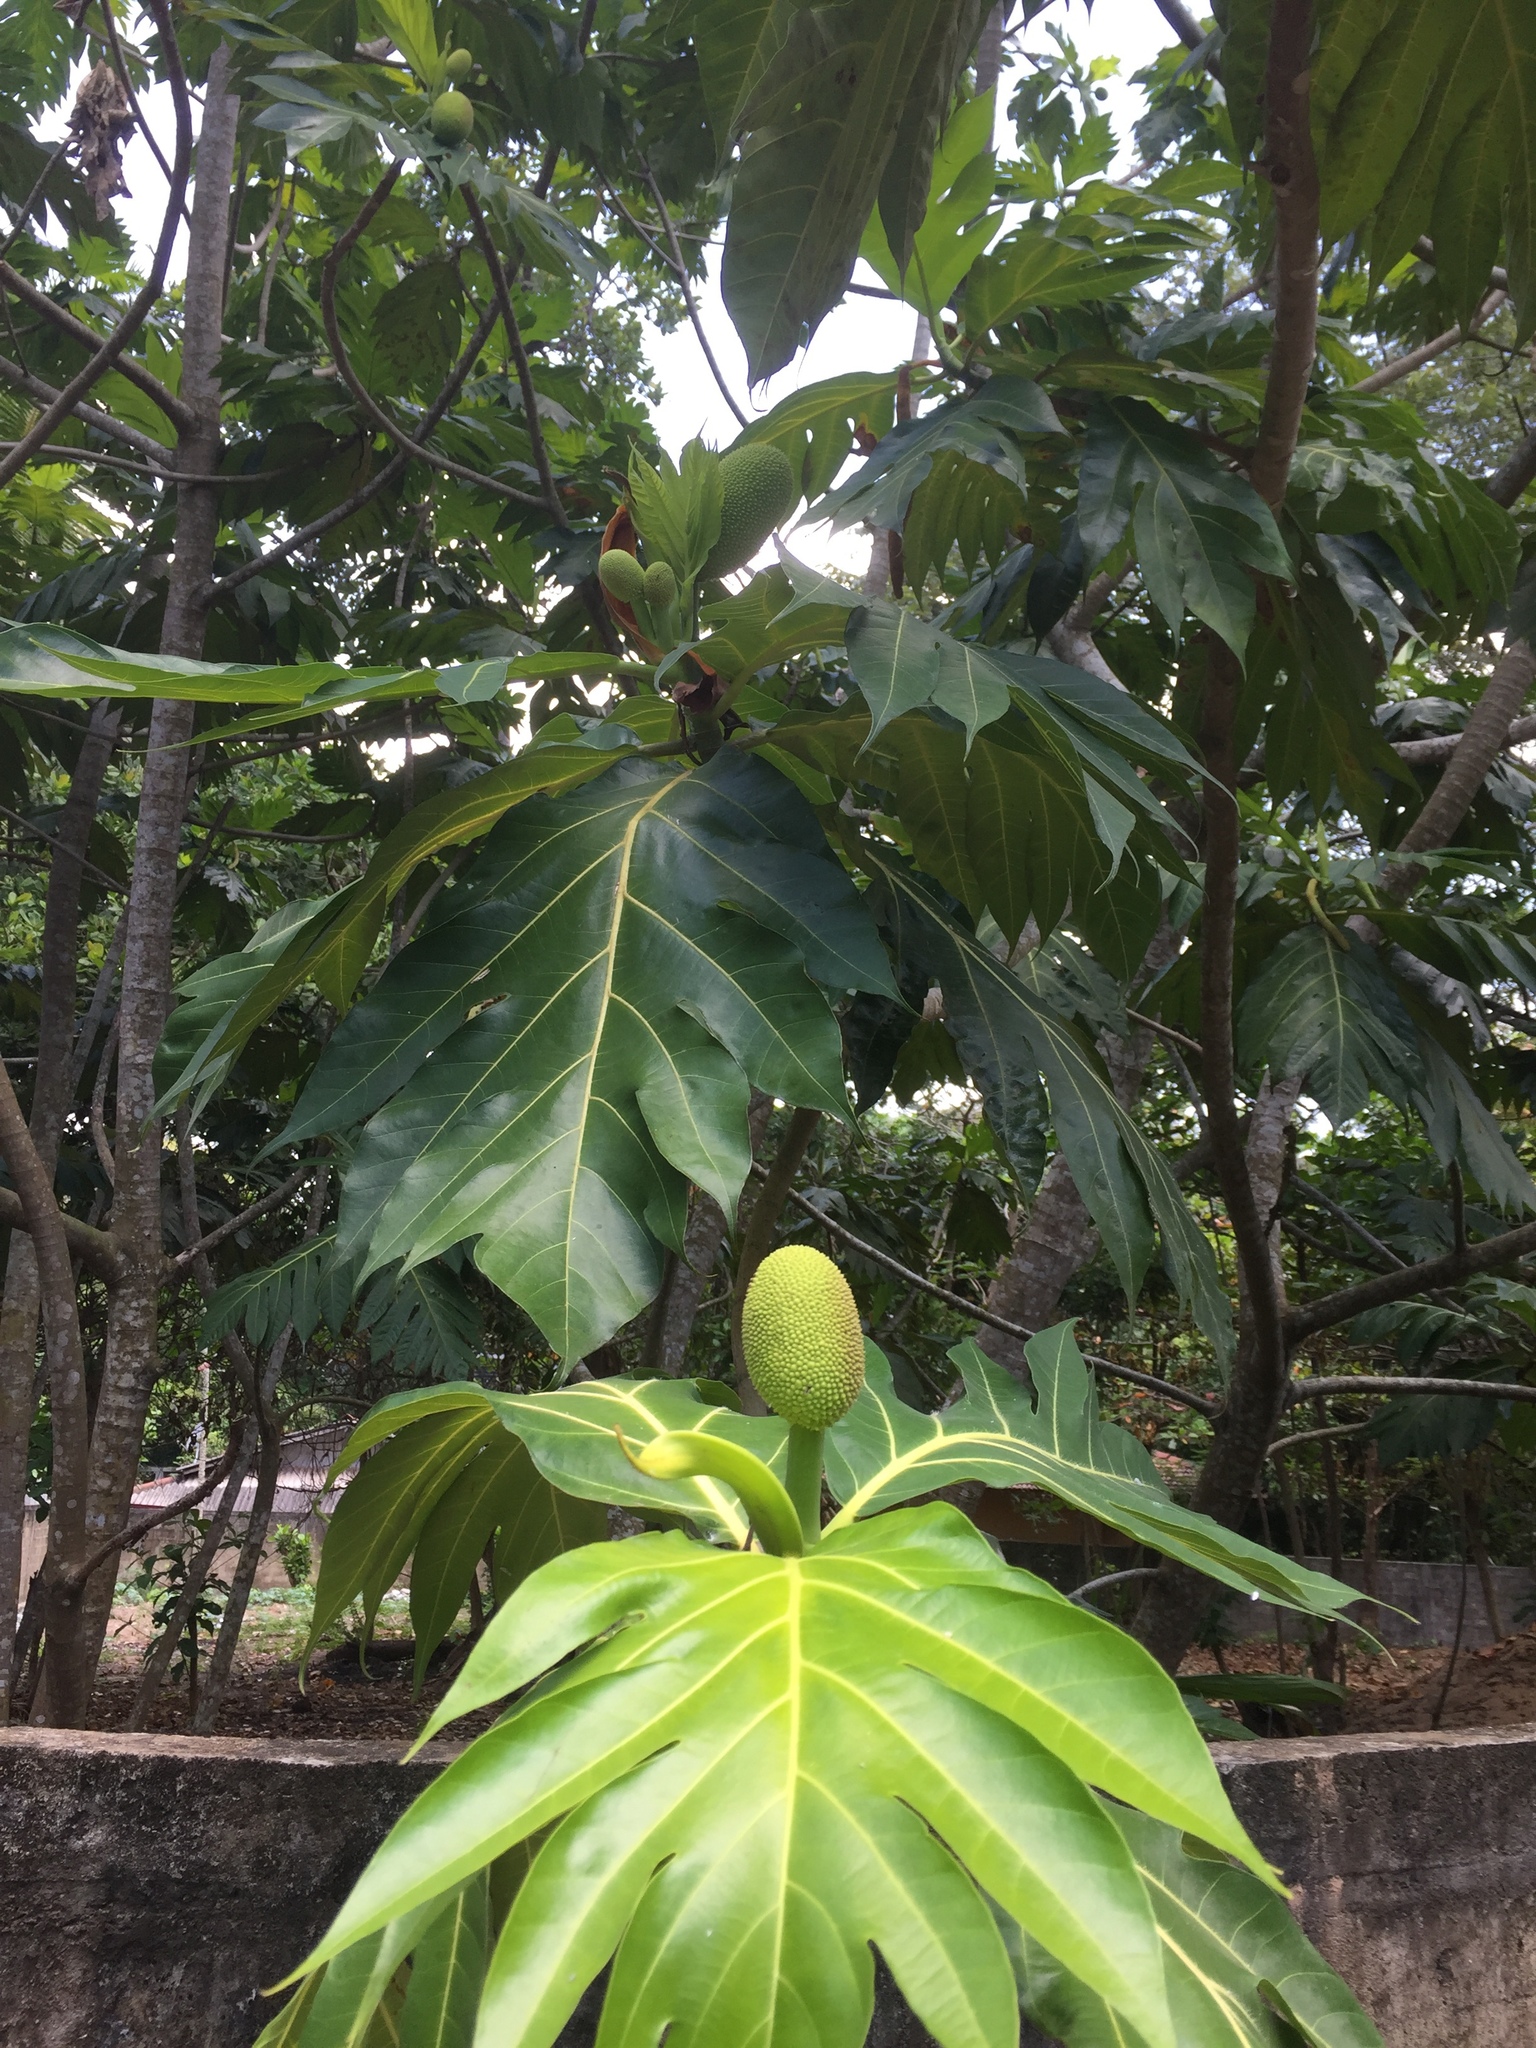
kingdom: Plantae
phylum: Tracheophyta
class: Magnoliopsida
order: Rosales
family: Moraceae
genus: Artocarpus
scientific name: Artocarpus altilis
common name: Breadfruit
